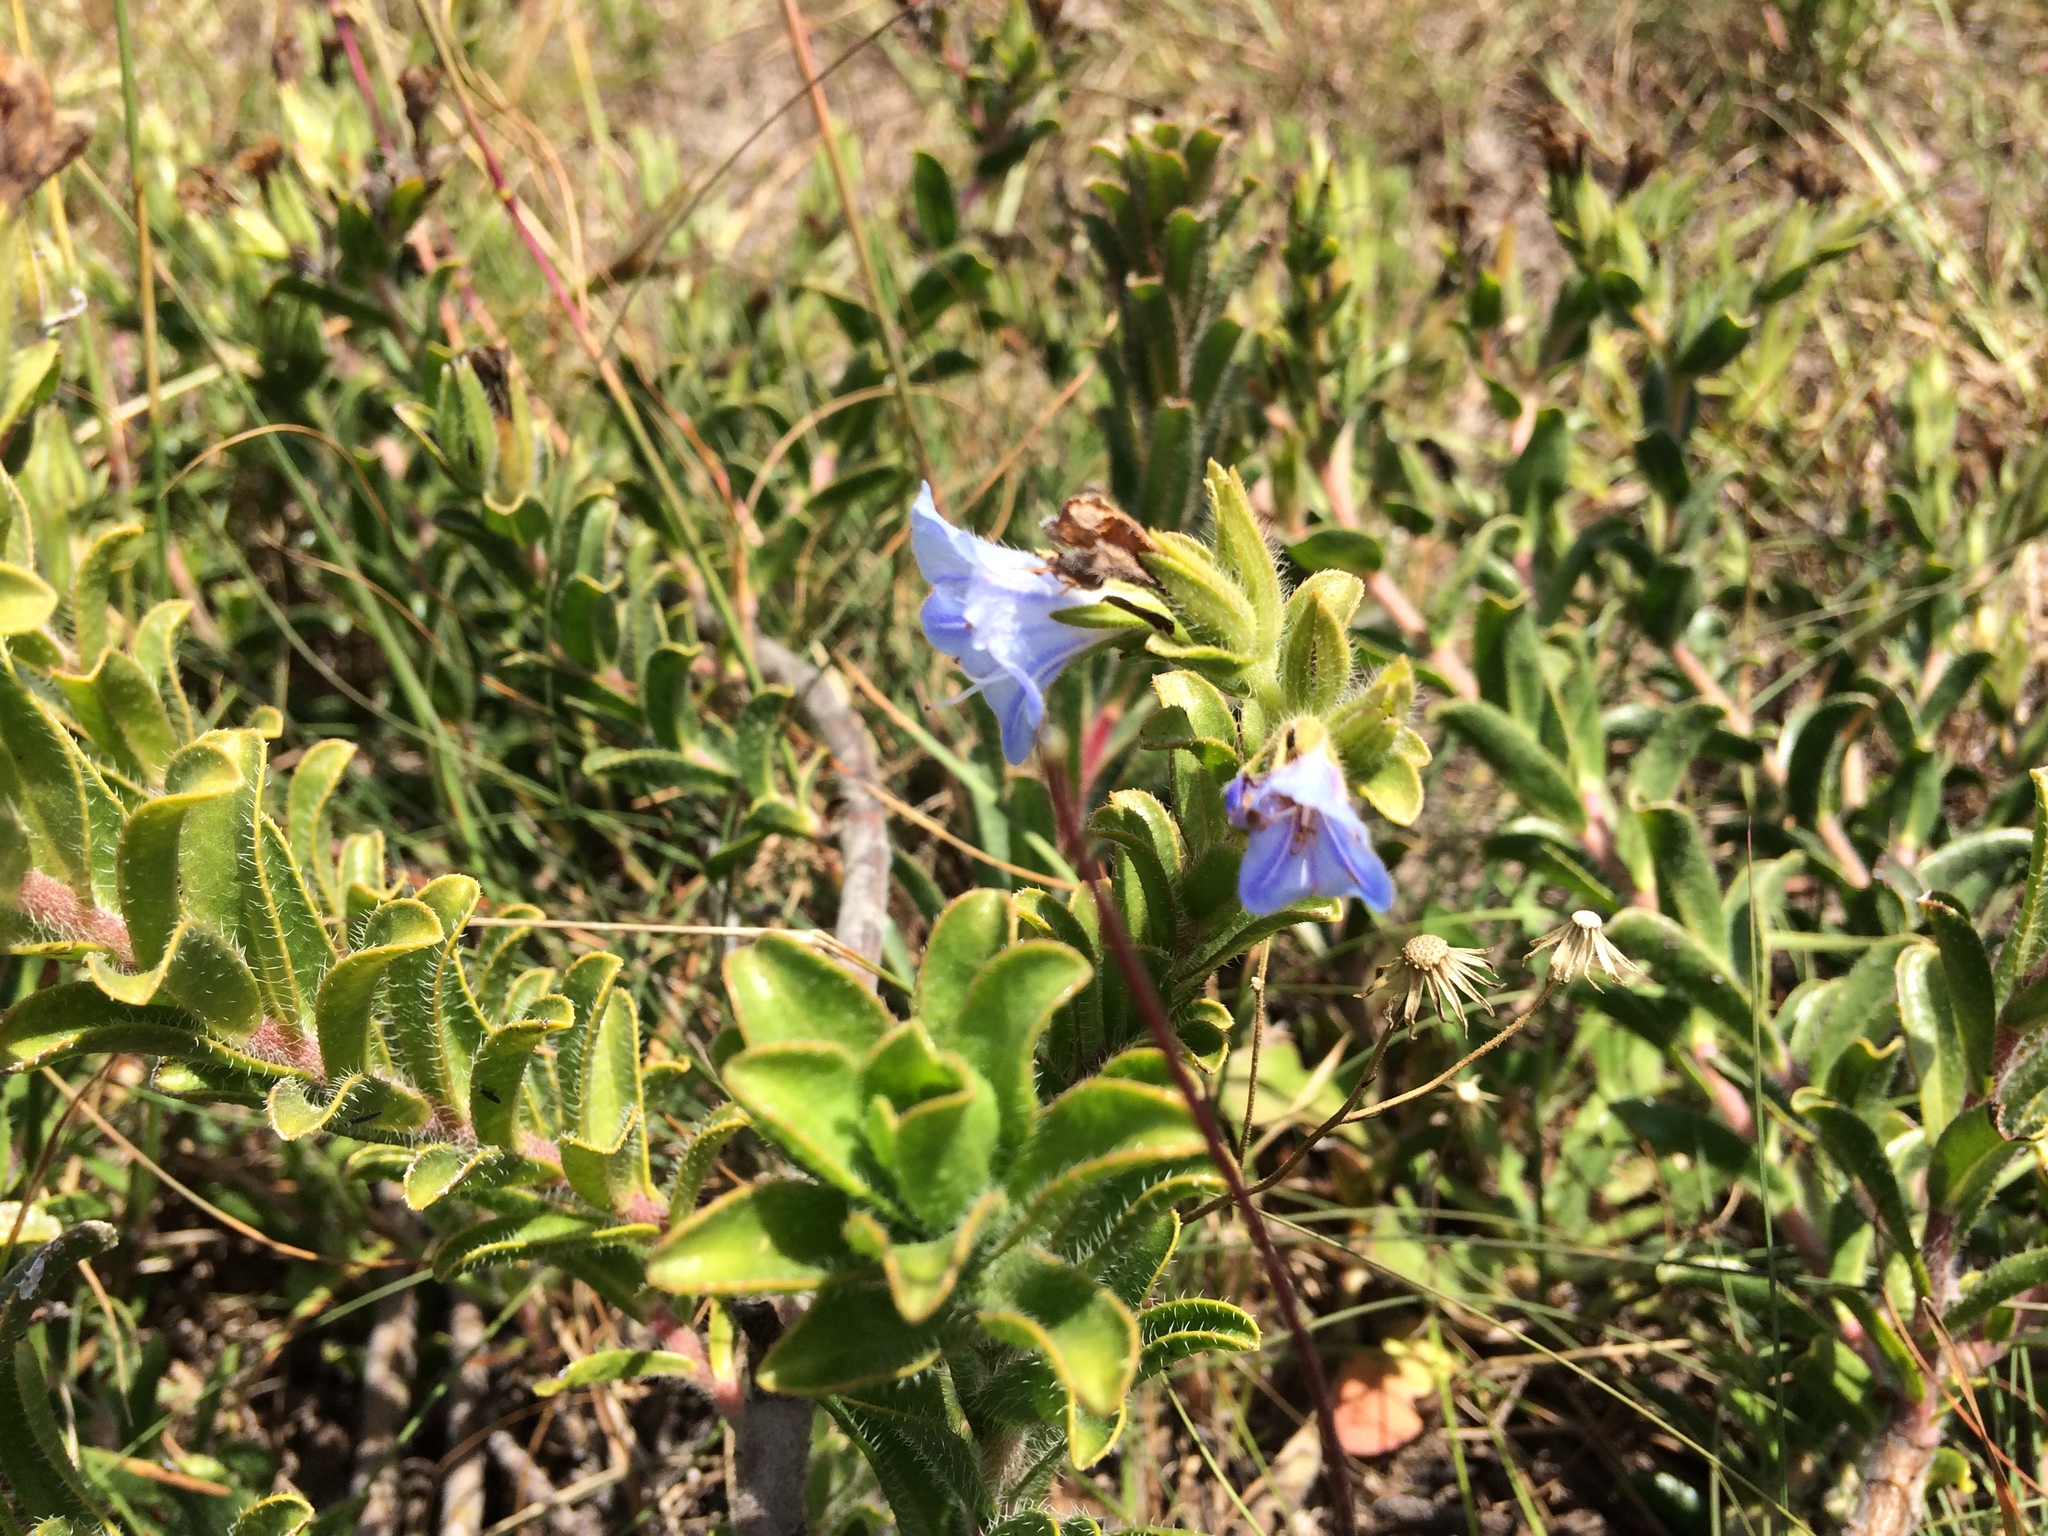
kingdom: Plantae
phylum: Tracheophyta
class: Magnoliopsida
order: Boraginales
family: Boraginaceae
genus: Lobostemon
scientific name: Lobostemon trigonus
